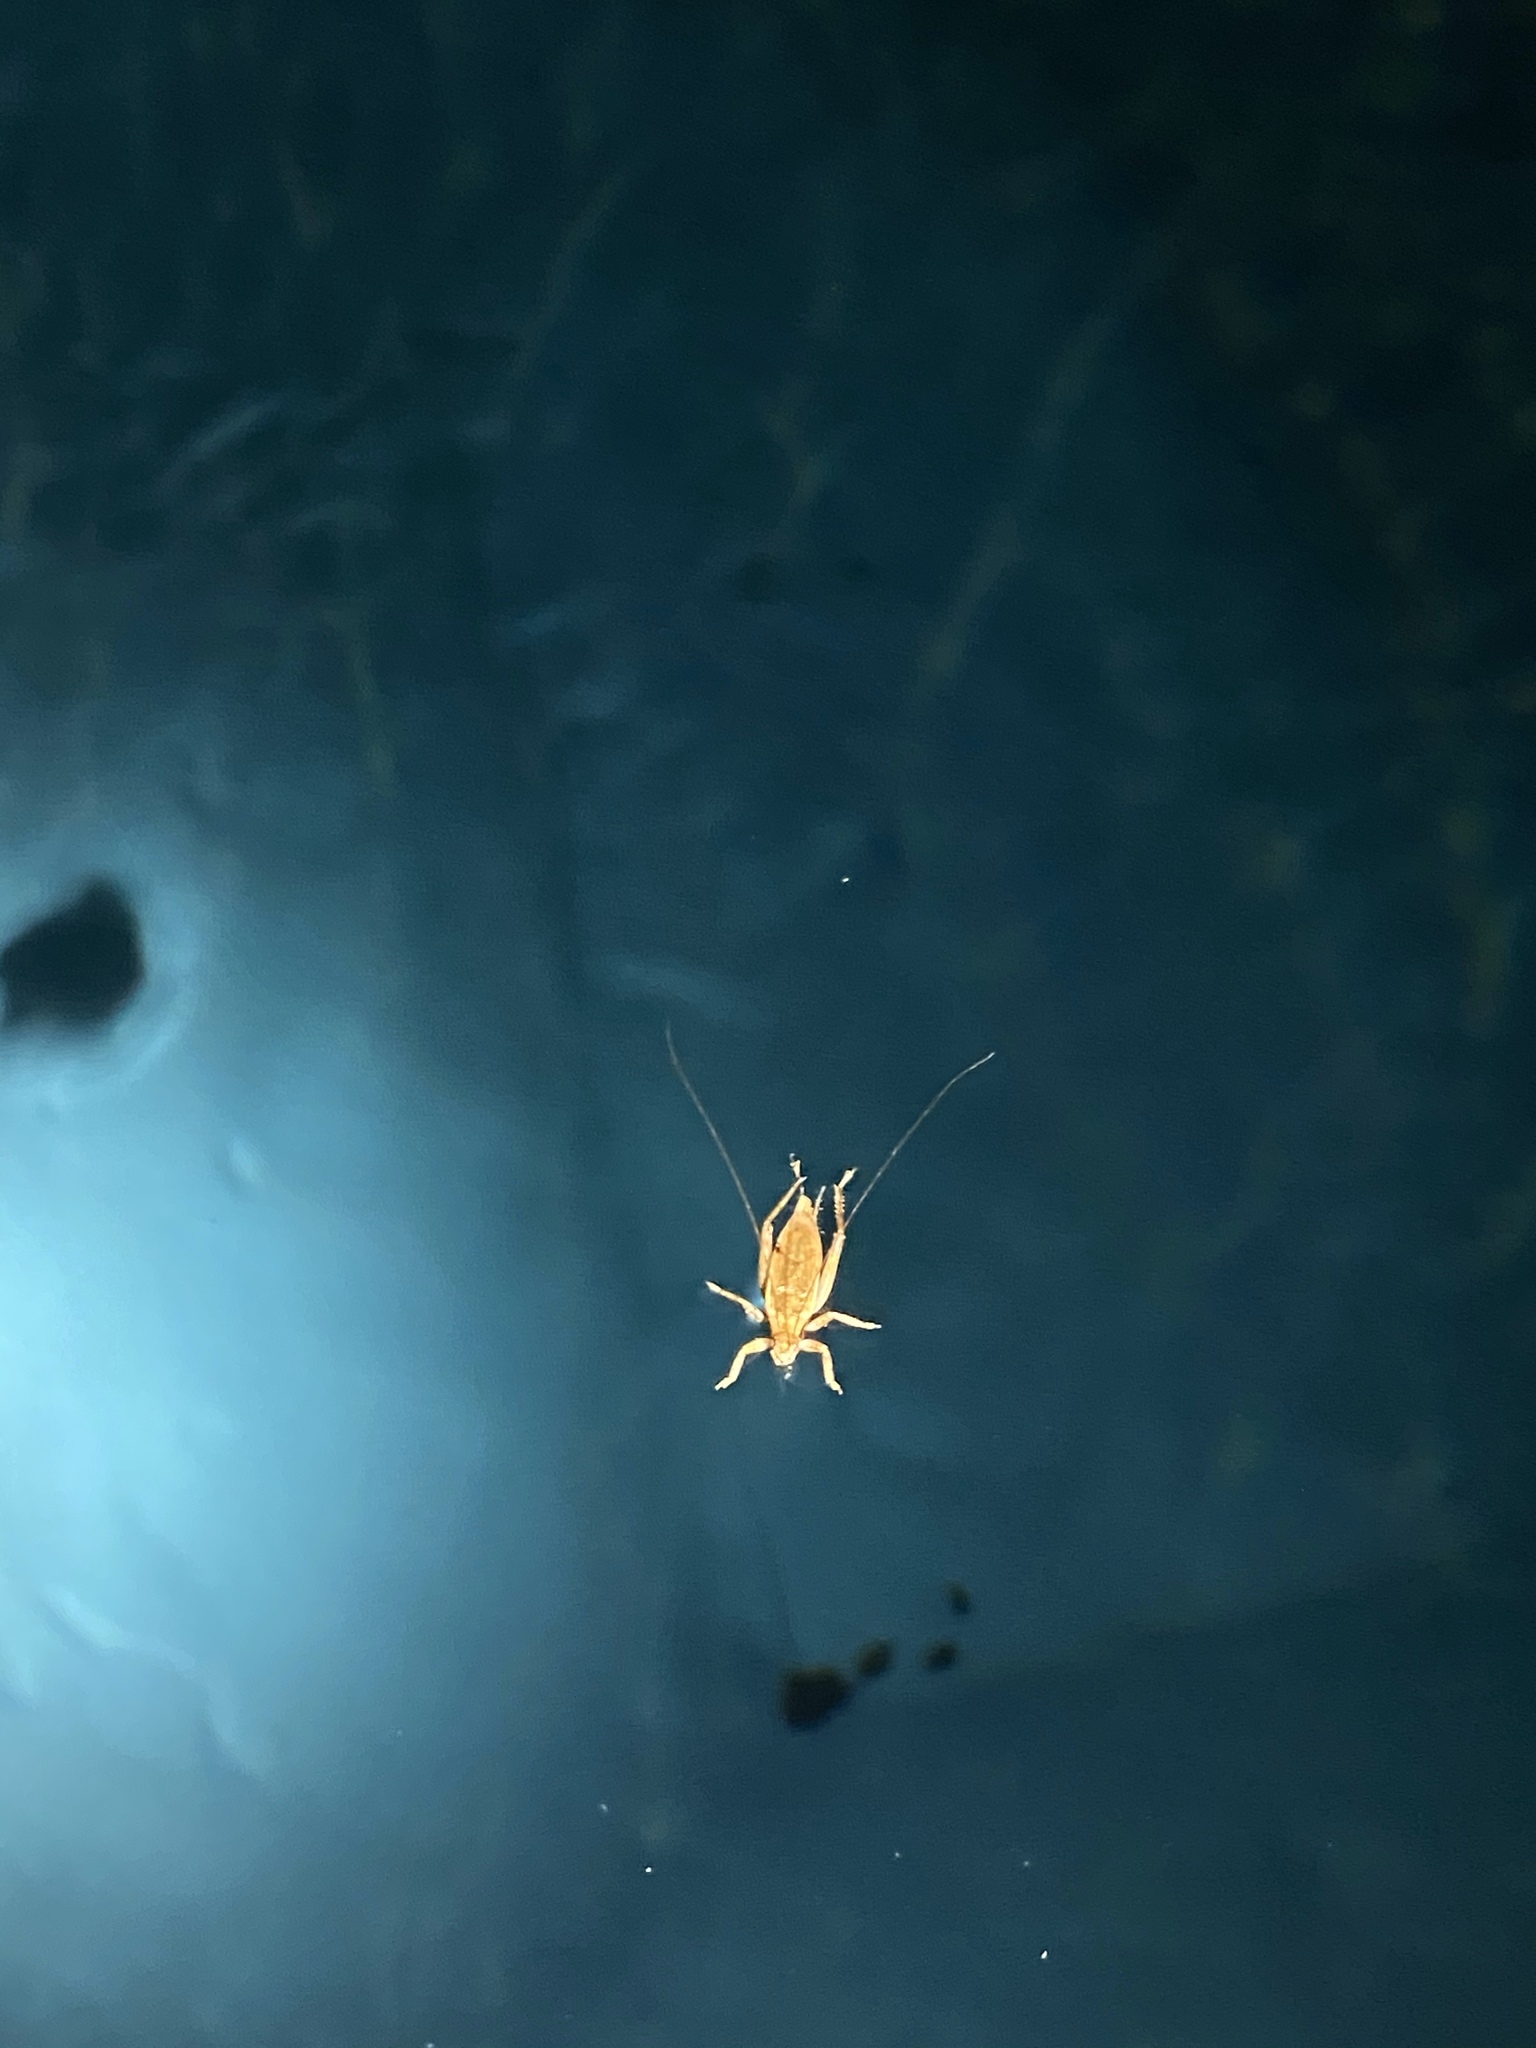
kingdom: Animalia
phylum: Arthropoda
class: Insecta
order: Orthoptera
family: Gryllidae
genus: Hapithus
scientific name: Hapithus saltator
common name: Jumping bush cricket
